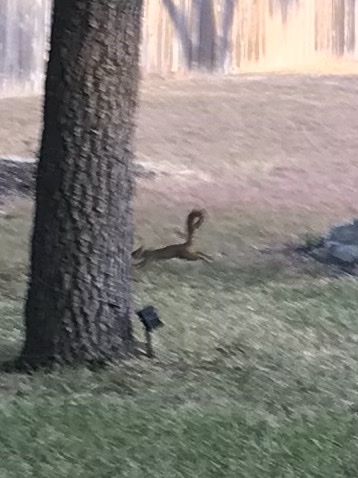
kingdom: Animalia
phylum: Chordata
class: Mammalia
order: Rodentia
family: Sciuridae
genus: Sciurus
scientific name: Sciurus niger
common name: Fox squirrel
